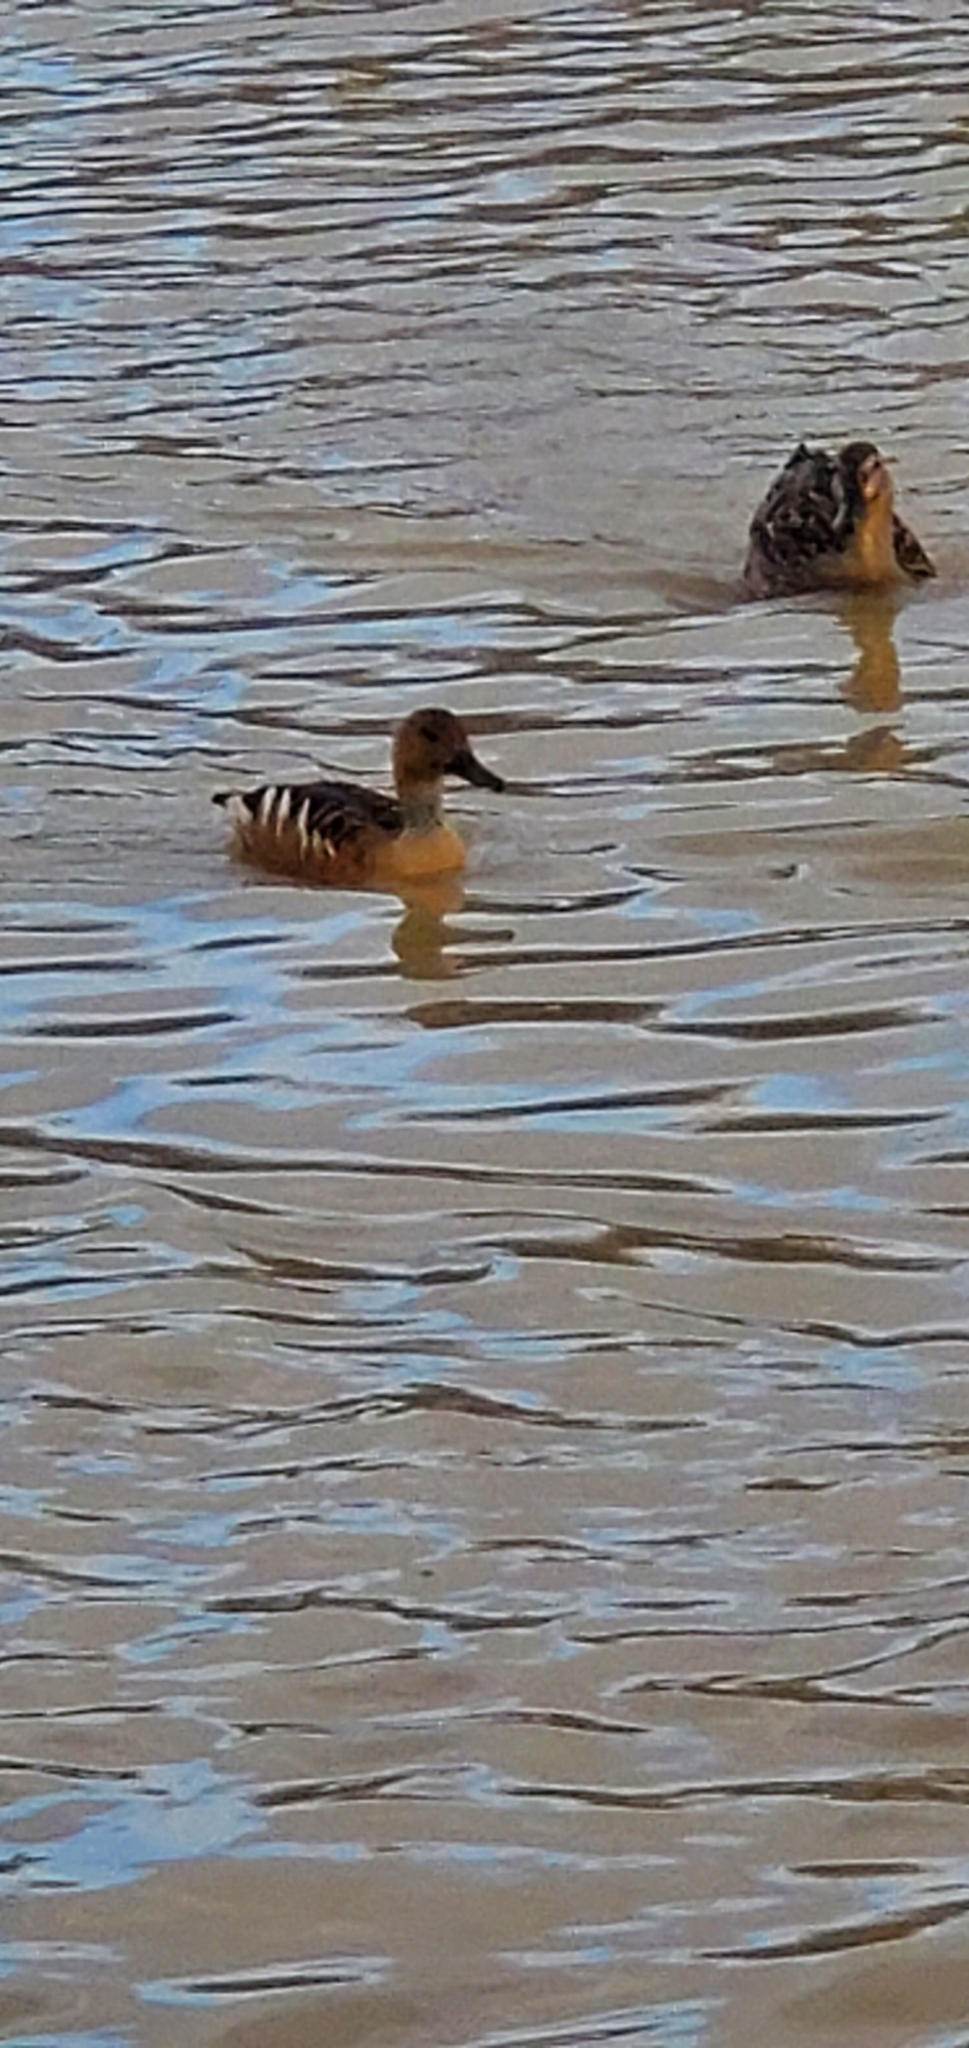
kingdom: Animalia
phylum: Chordata
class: Aves
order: Anseriformes
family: Anatidae
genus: Dendrocygna
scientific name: Dendrocygna bicolor
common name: Fulvous whistling duck
